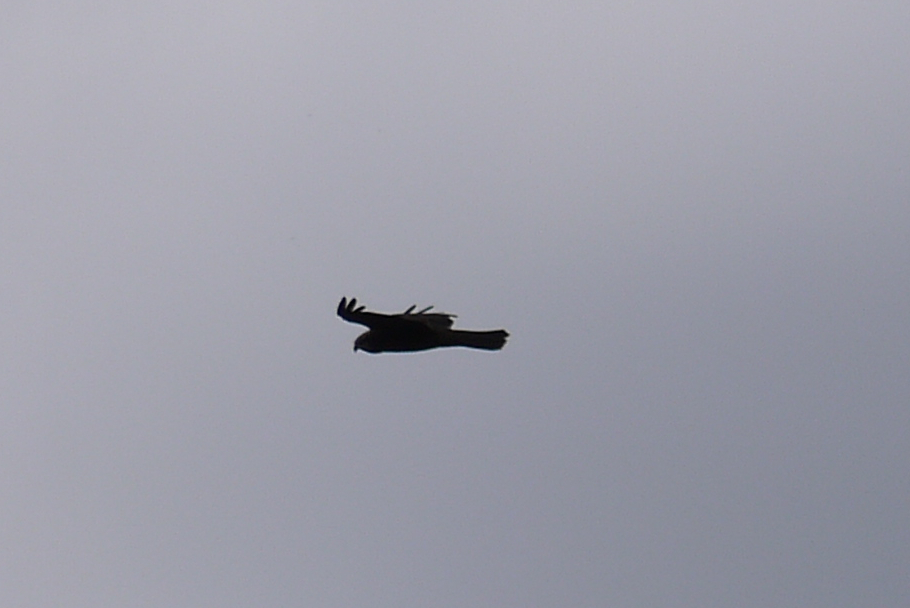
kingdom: Animalia
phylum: Chordata
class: Aves
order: Accipitriformes
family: Accipitridae
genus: Circus
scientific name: Circus aeruginosus
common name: Western marsh harrier
